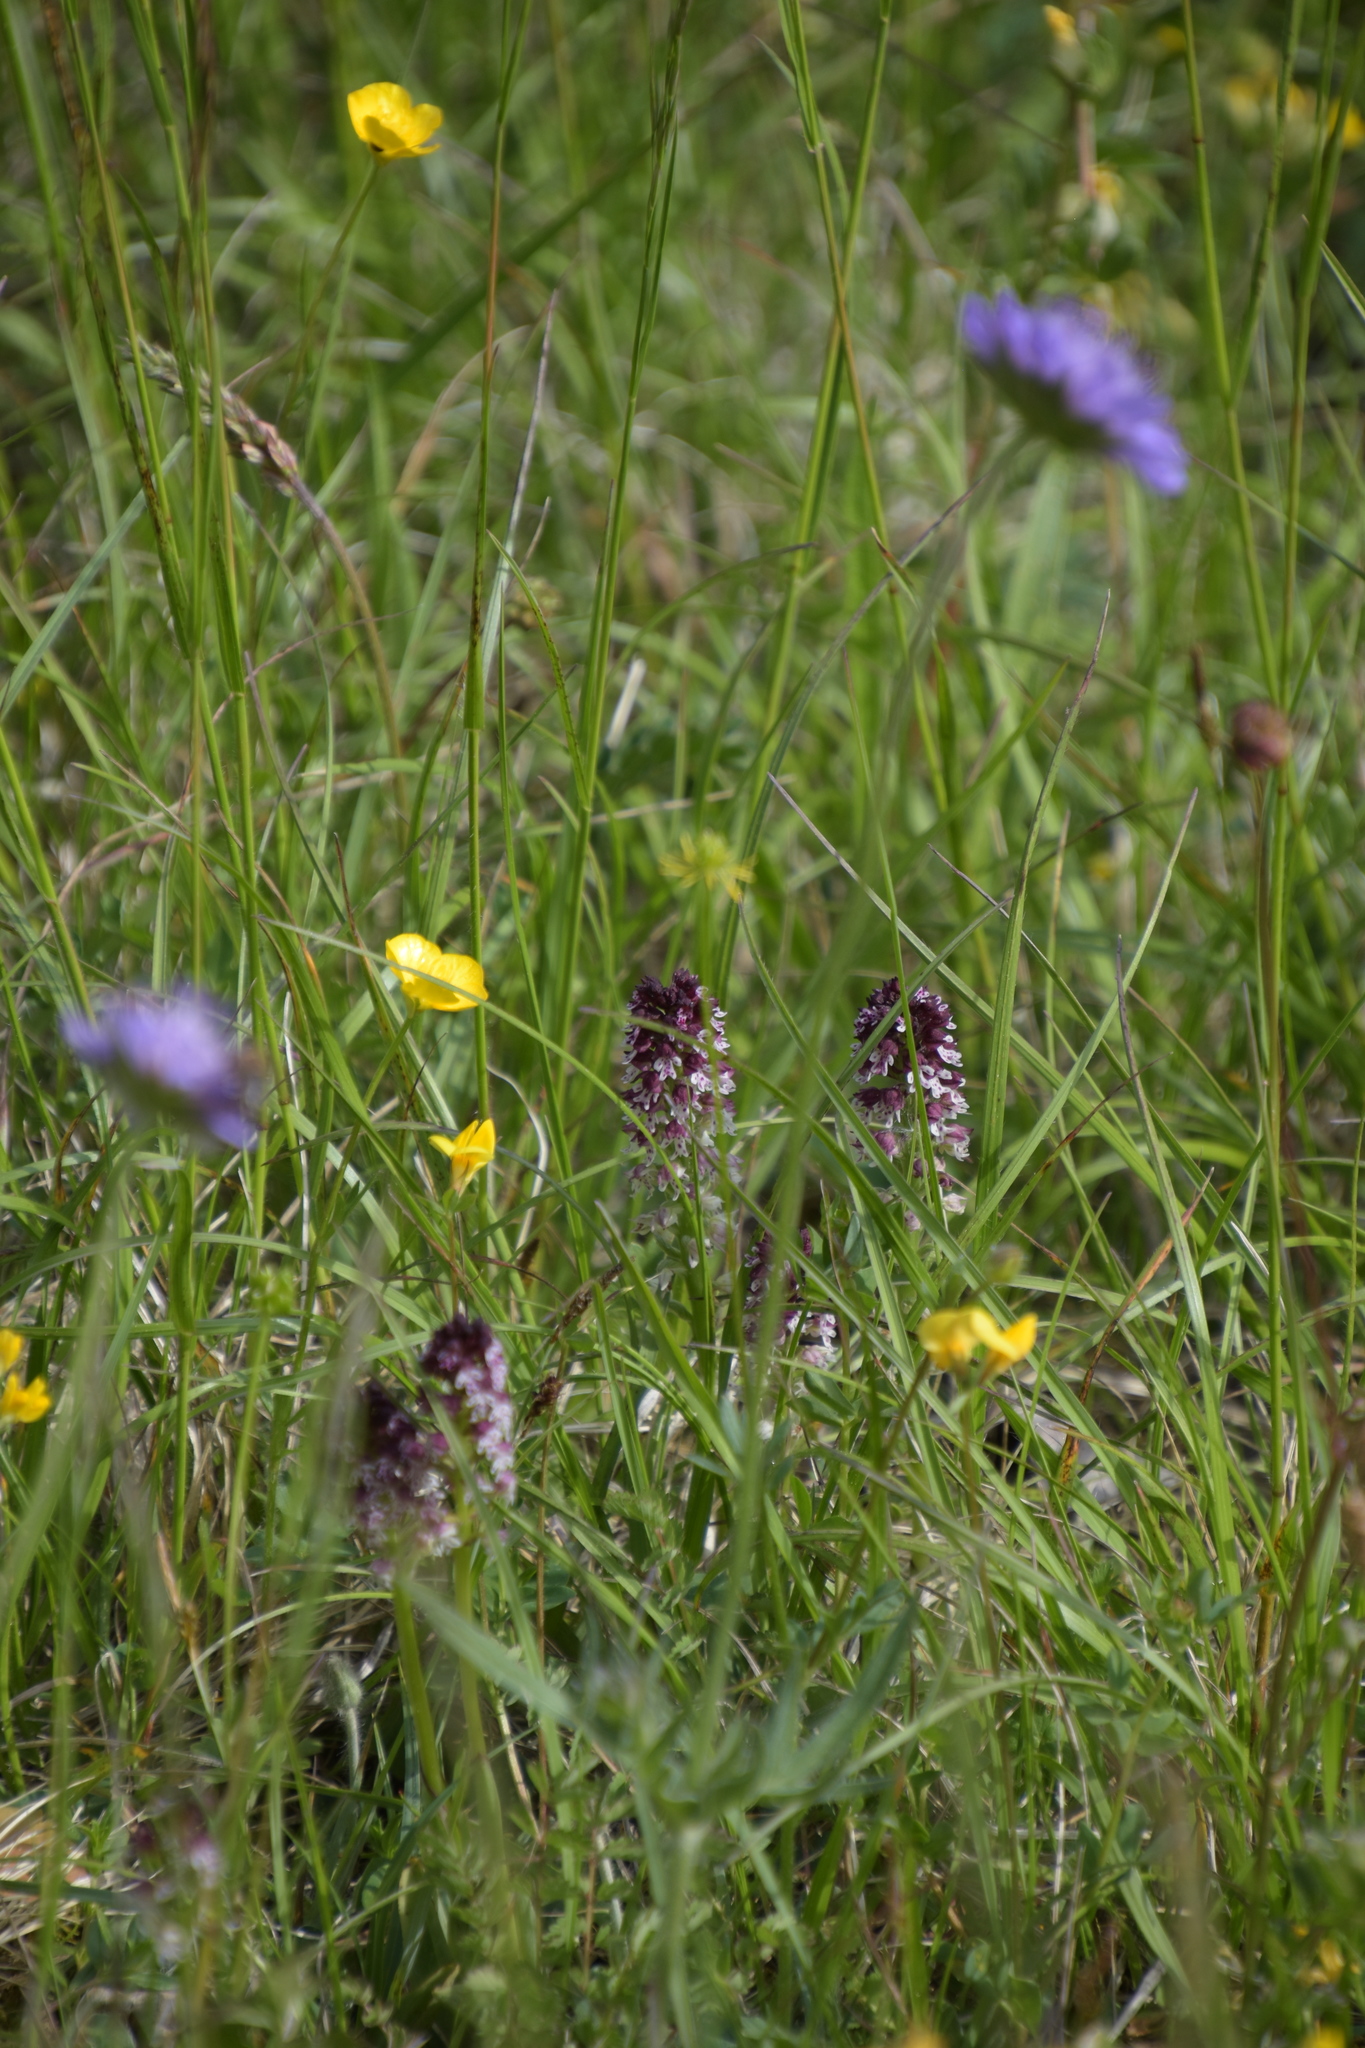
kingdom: Plantae
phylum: Tracheophyta
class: Liliopsida
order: Asparagales
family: Orchidaceae
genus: Neotinea
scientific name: Neotinea ustulata
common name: Burnt orchid
